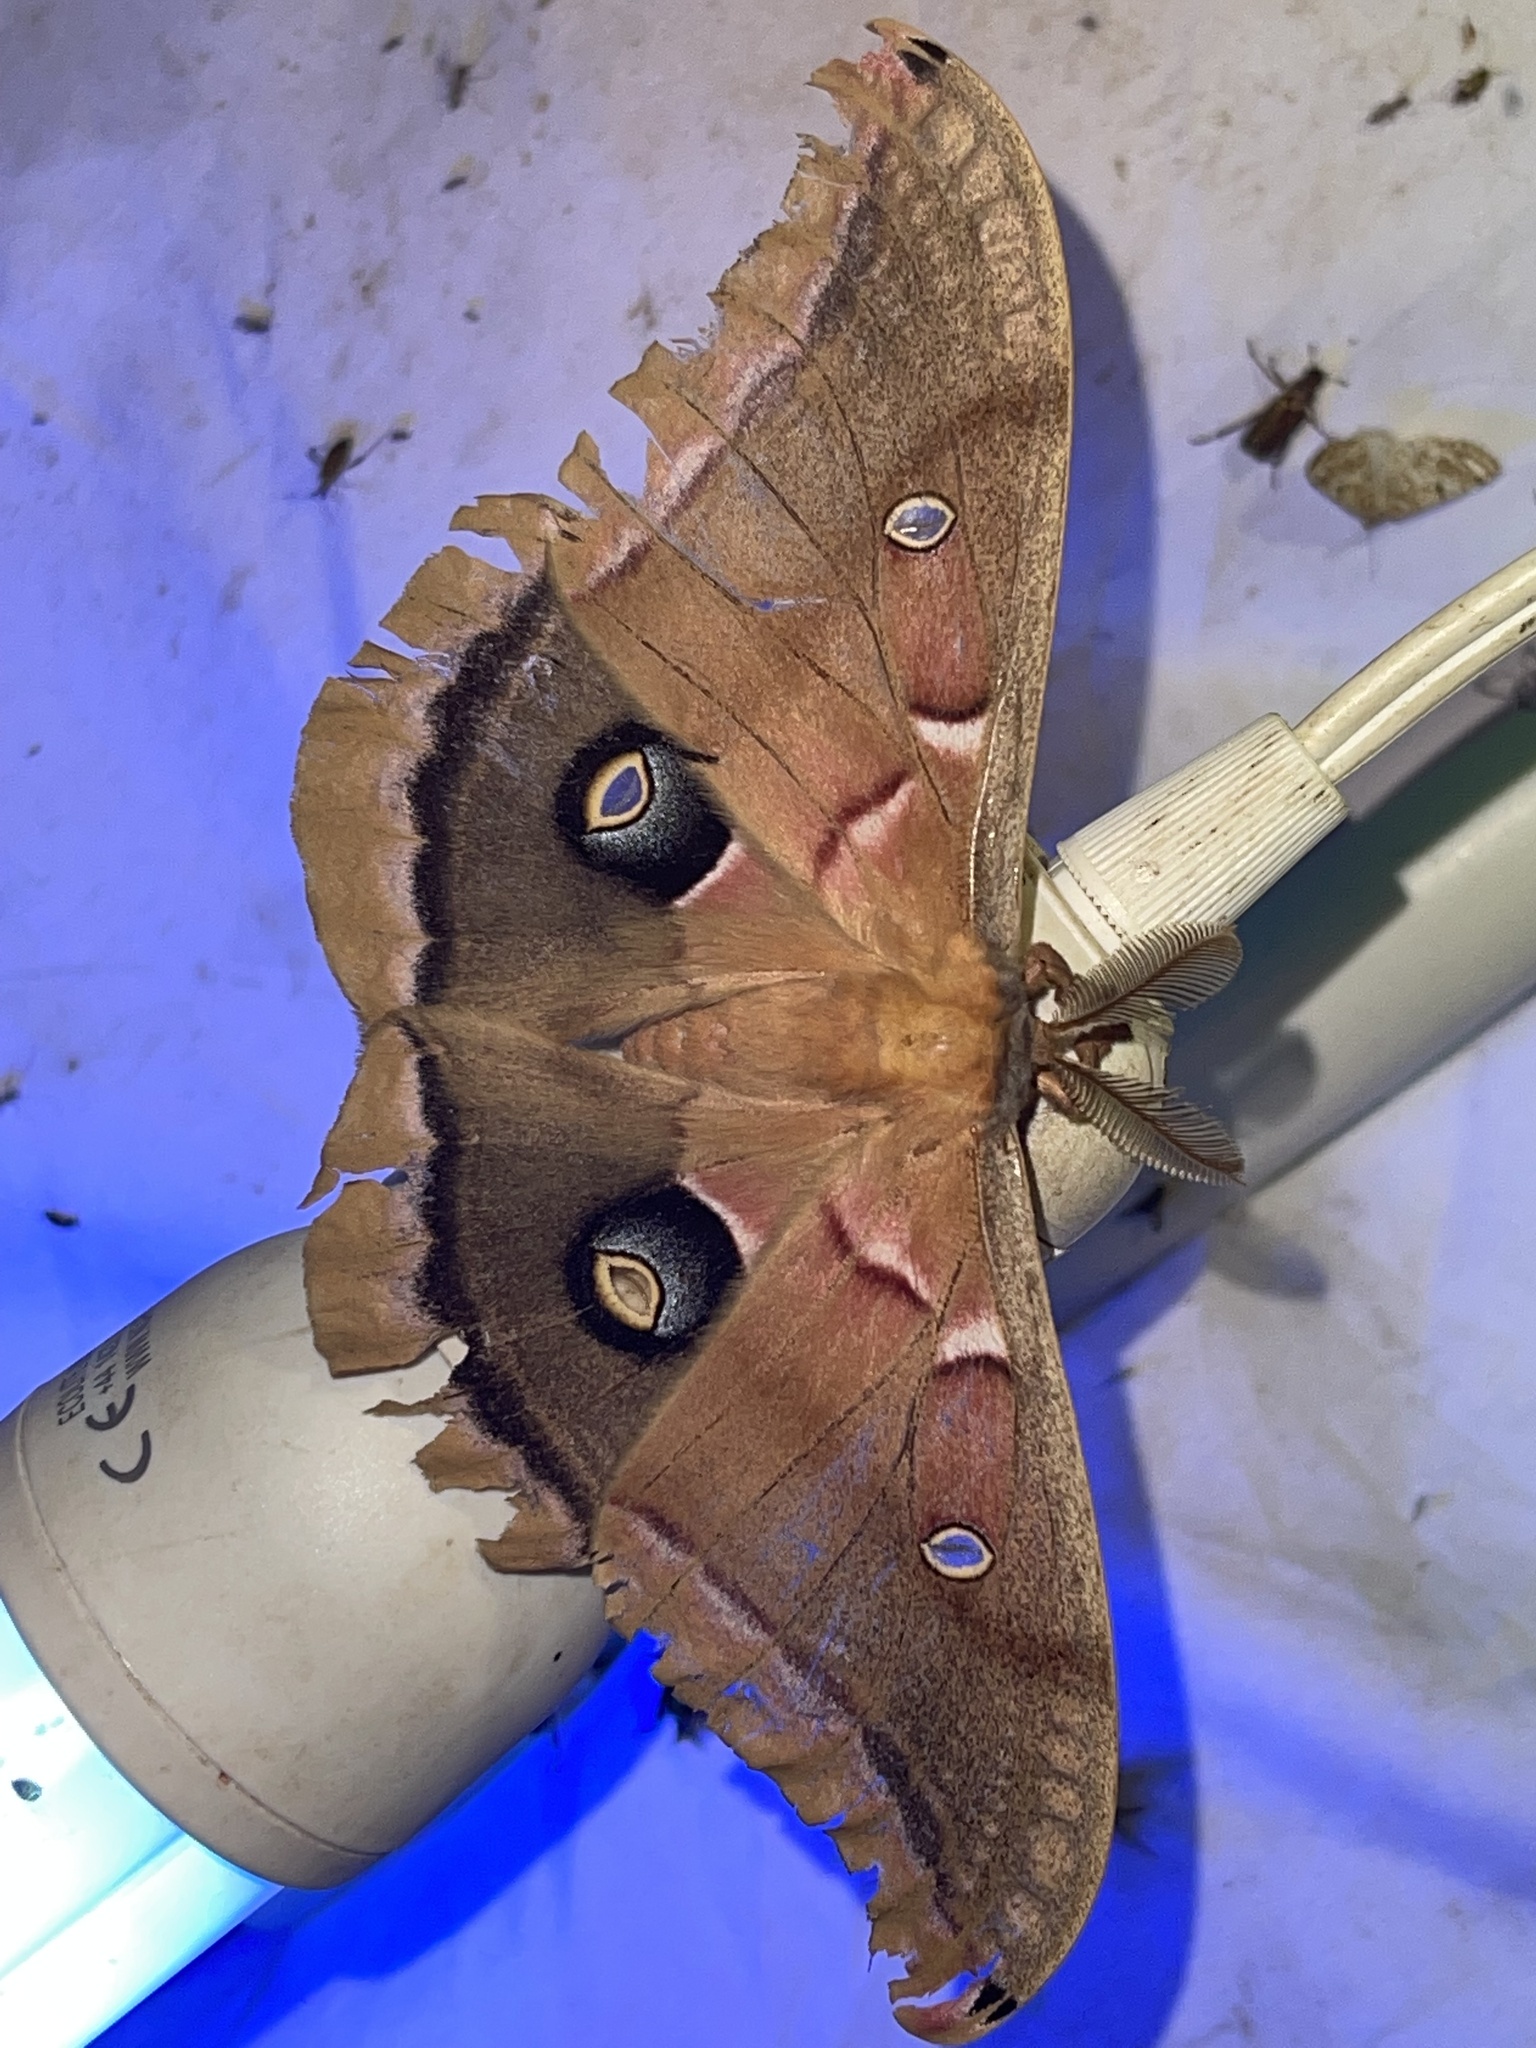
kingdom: Animalia
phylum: Arthropoda
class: Insecta
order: Lepidoptera
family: Saturniidae
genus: Antheraea
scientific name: Antheraea polyphemus
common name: Polyphemus moth
